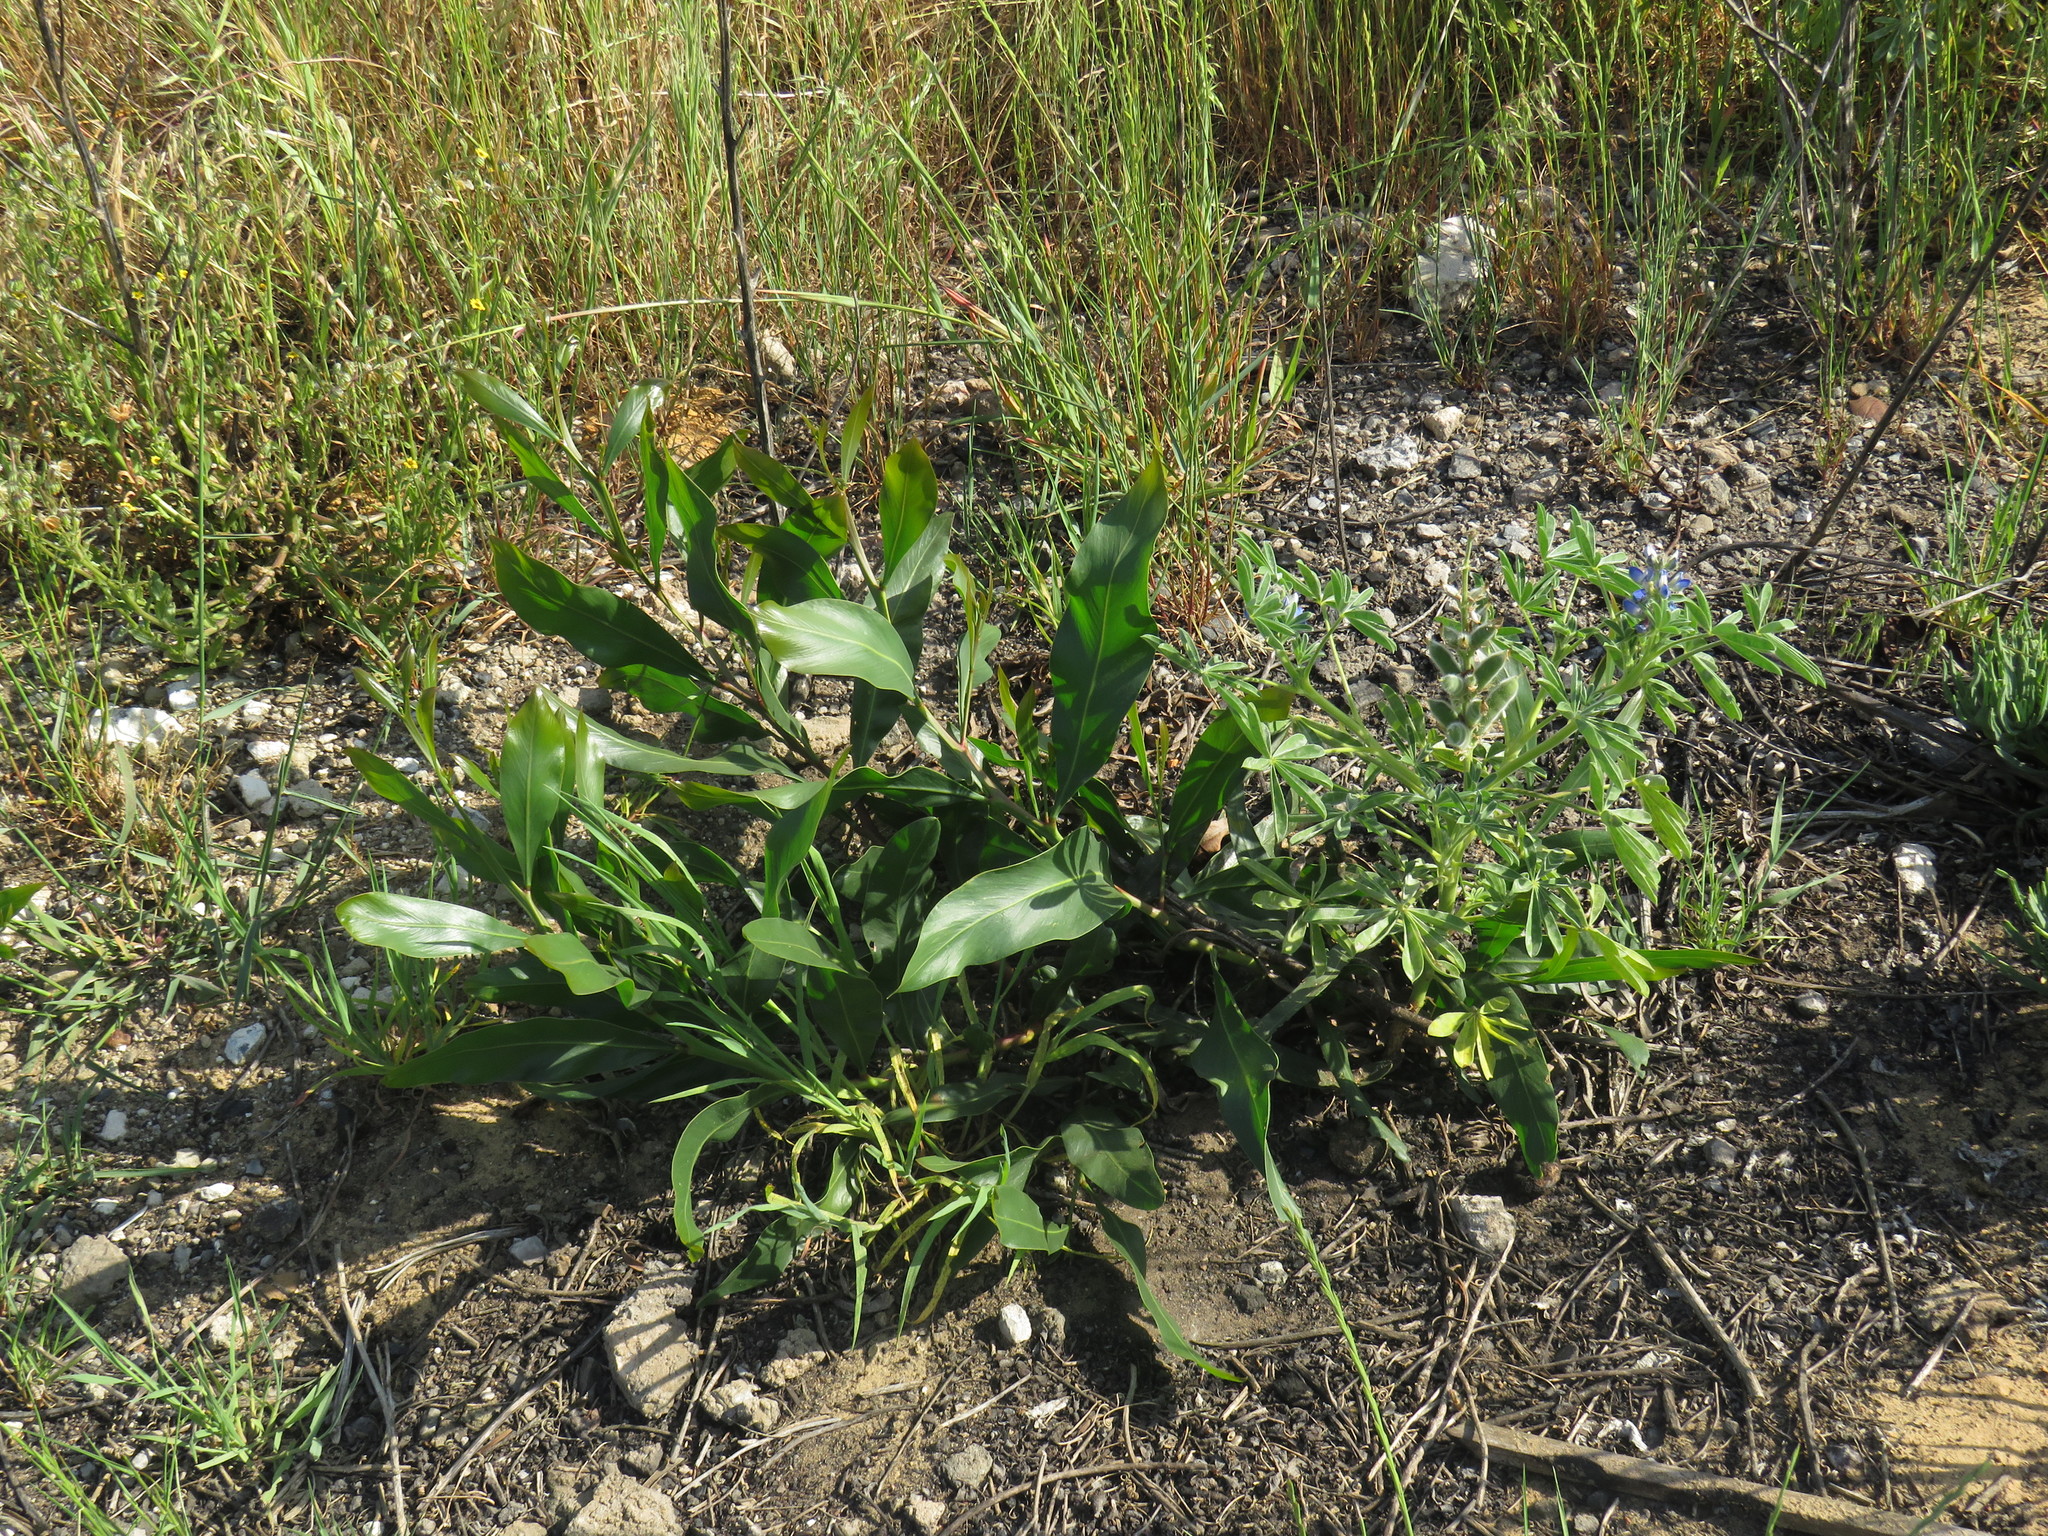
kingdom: Plantae
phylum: Tracheophyta
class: Magnoliopsida
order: Fabales
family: Fabaceae
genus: Acacia
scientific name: Acacia saligna
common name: Orange wattle
